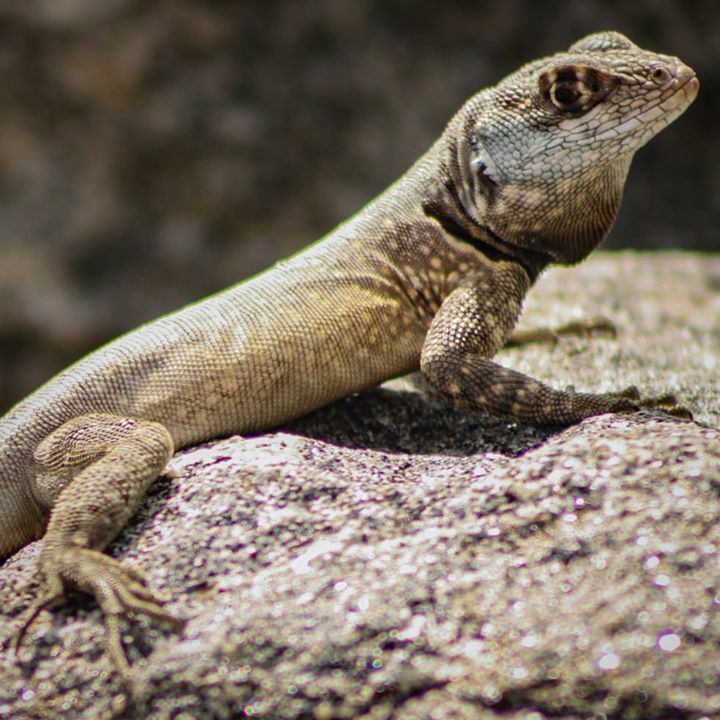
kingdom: Animalia
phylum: Chordata
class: Squamata
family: Tropiduridae
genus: Tropidurus
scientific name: Tropidurus torquatus
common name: Amazon lava lizard
